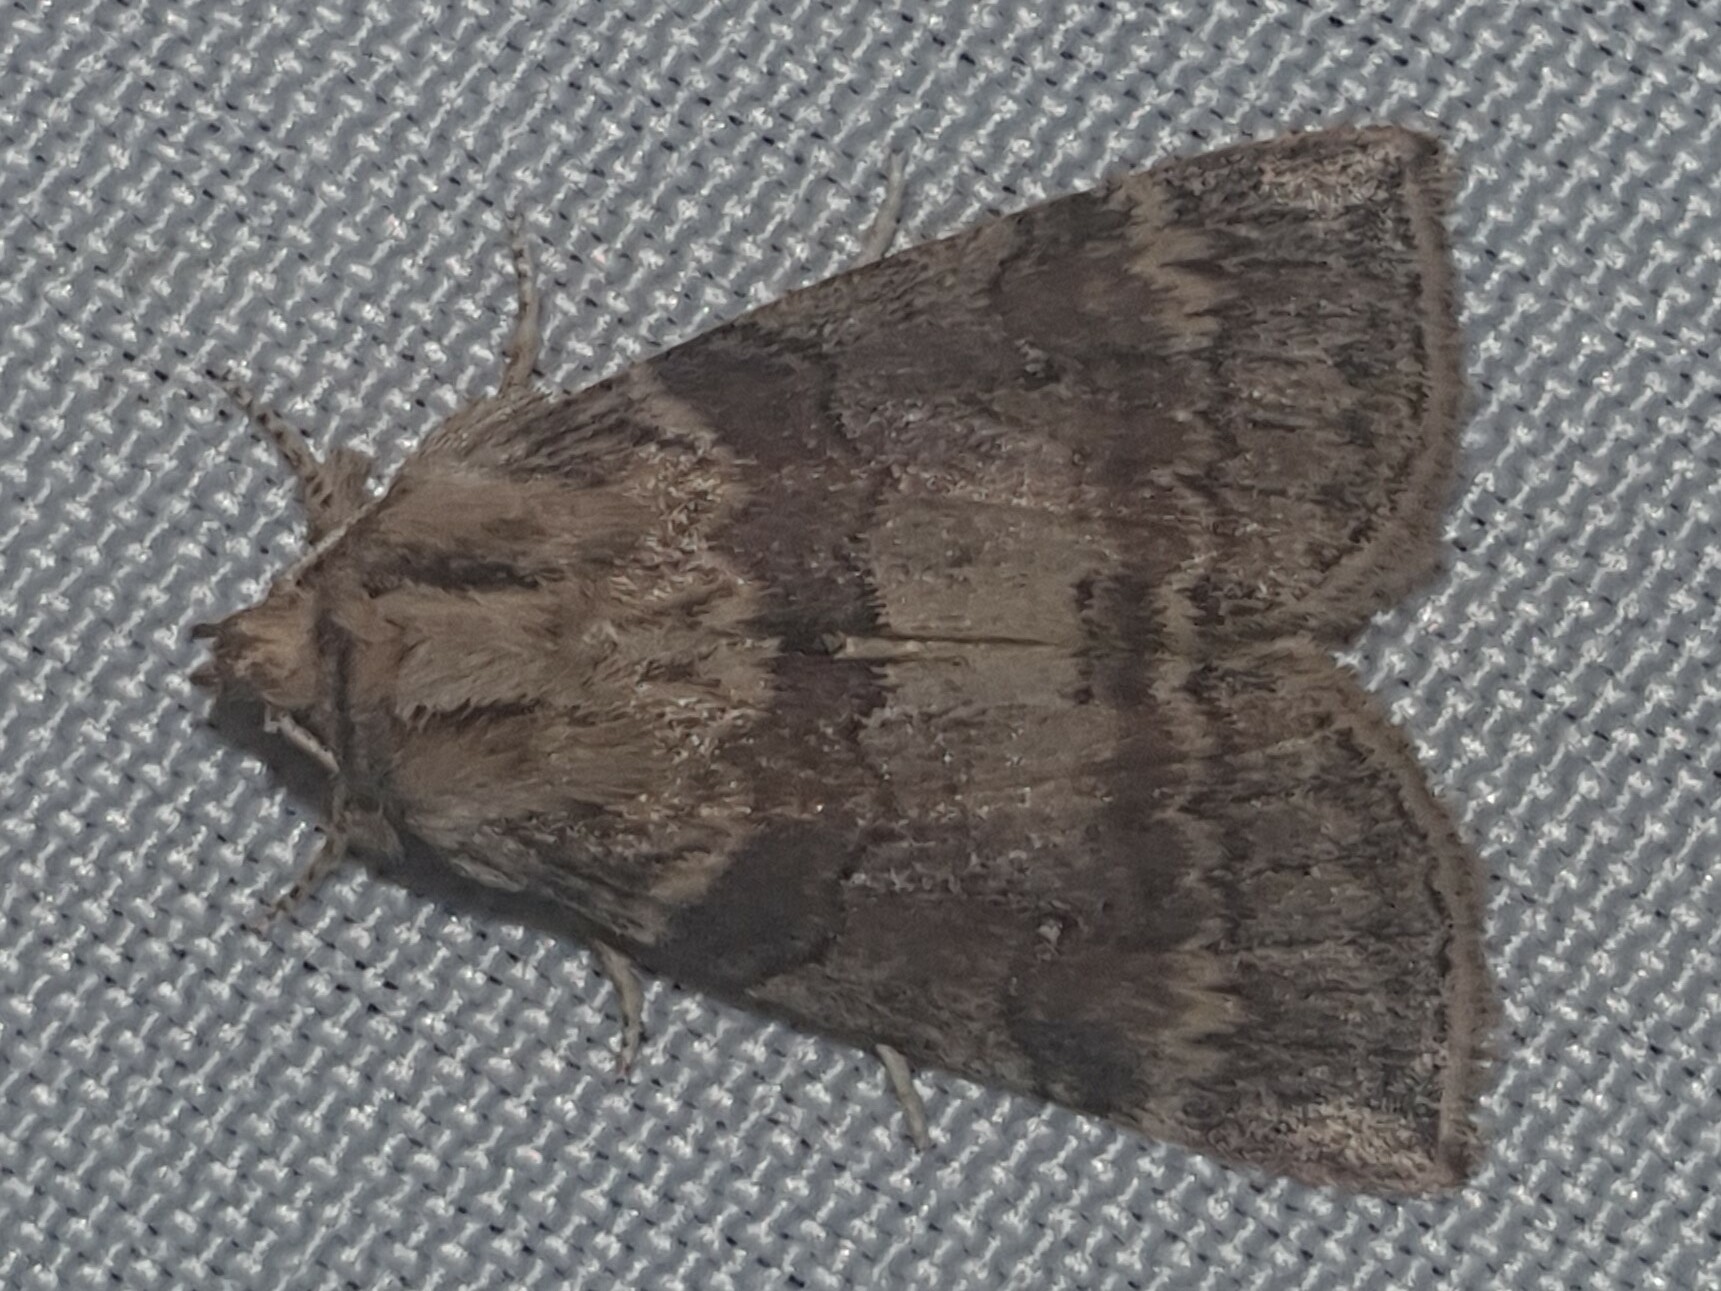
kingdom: Animalia
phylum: Arthropoda
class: Insecta
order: Lepidoptera
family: Drepanidae
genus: Cymatophorina
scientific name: Cymatophorina diluta
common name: Oak lutestring
